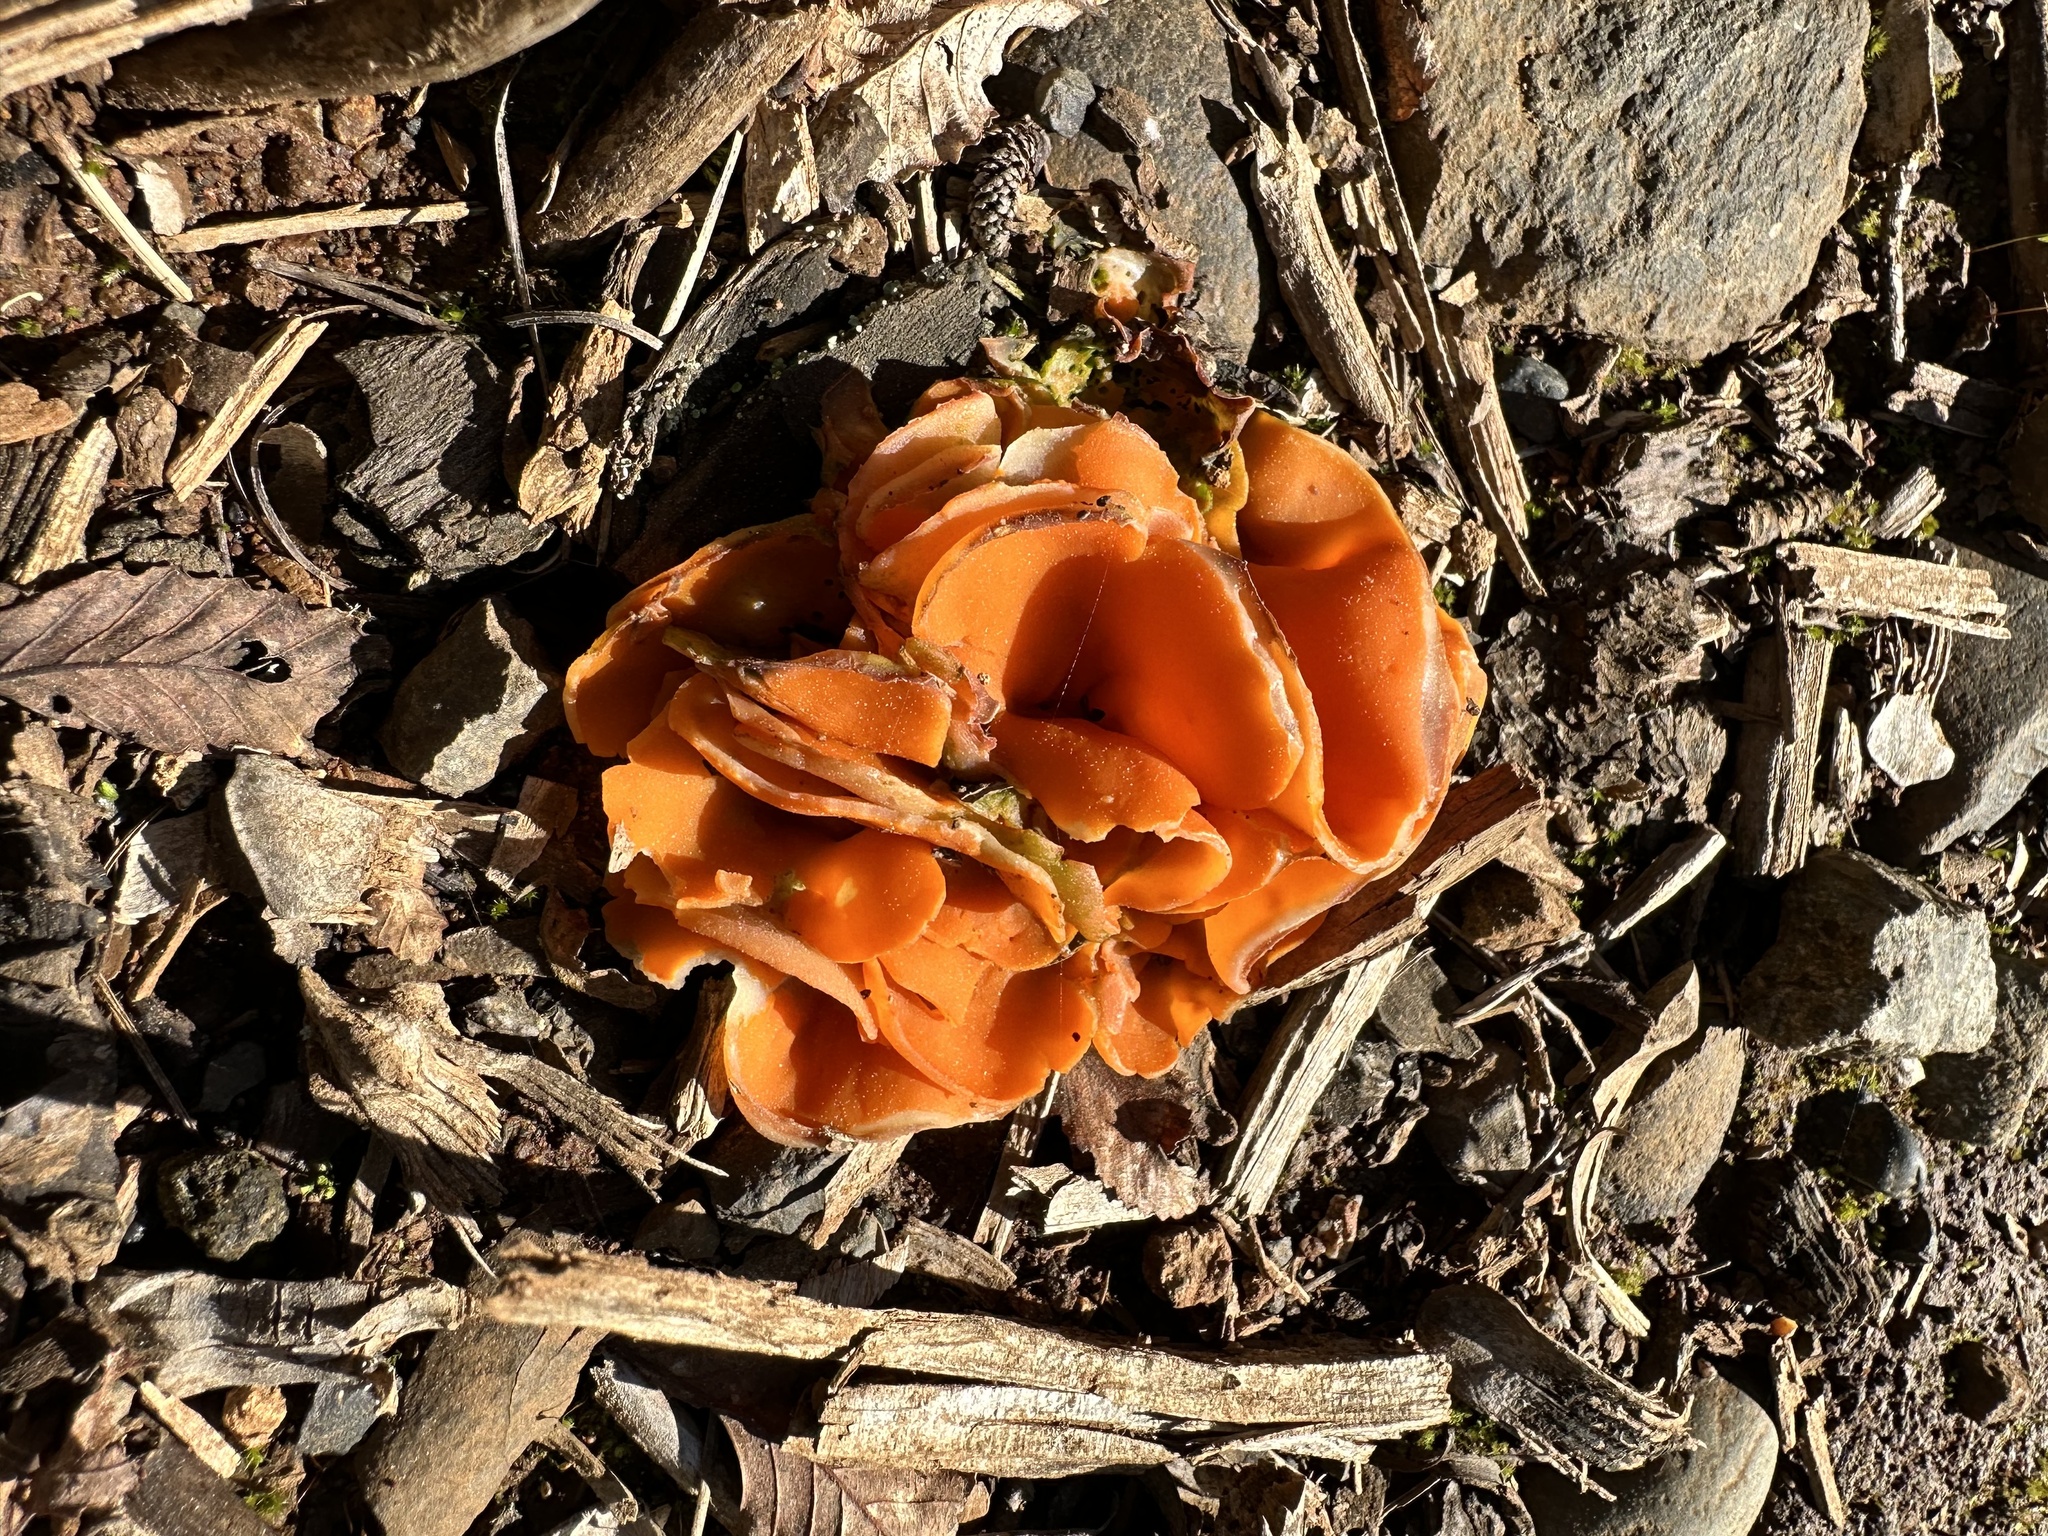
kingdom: Fungi
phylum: Ascomycota
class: Pezizomycetes
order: Pezizales
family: Pyronemataceae
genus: Aleuria
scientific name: Aleuria aurantia
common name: Orange peel fungus
